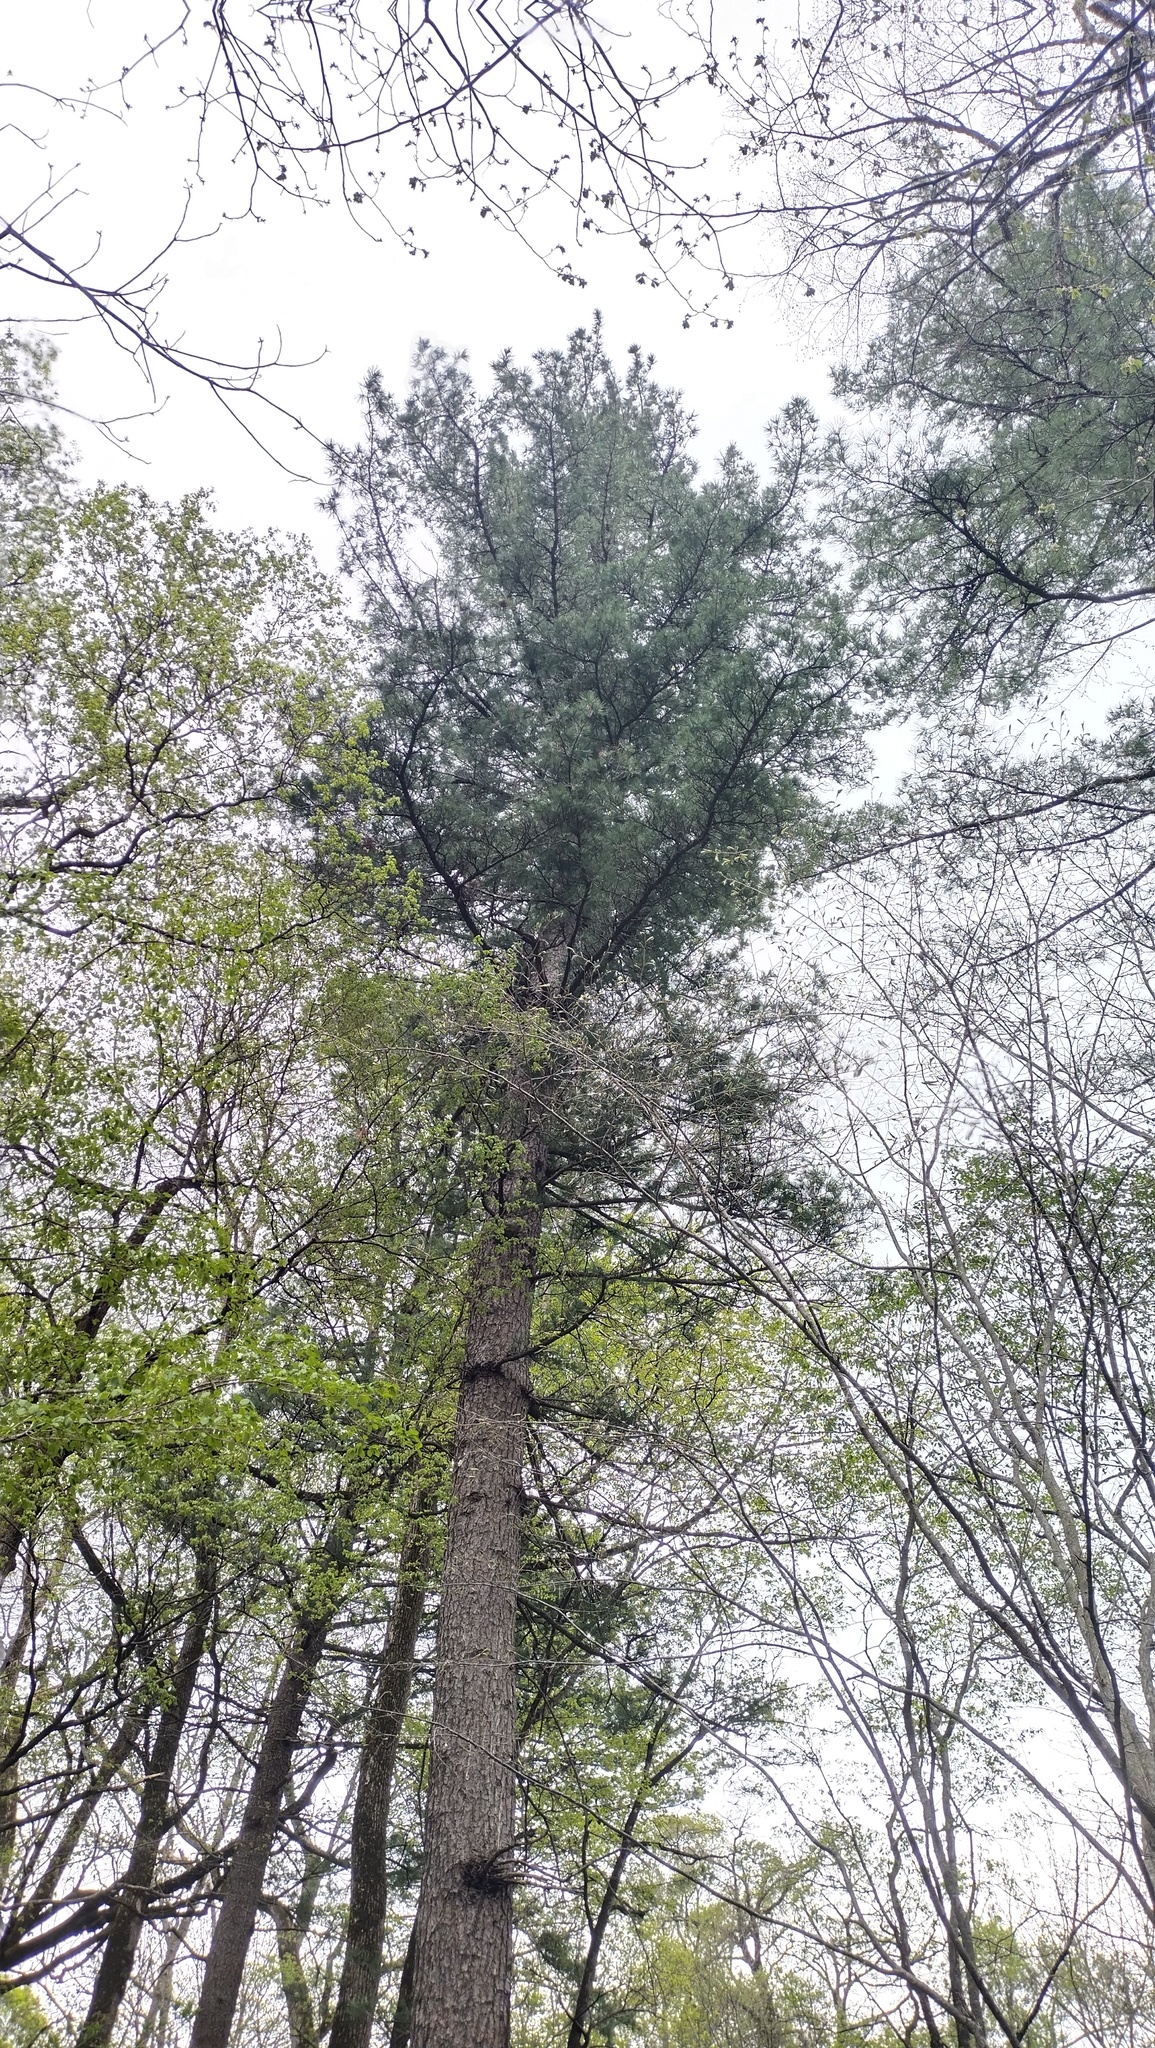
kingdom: Plantae
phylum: Tracheophyta
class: Pinopsida
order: Pinales
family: Pinaceae
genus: Pinus
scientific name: Pinus koraiensis
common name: Korean pine
